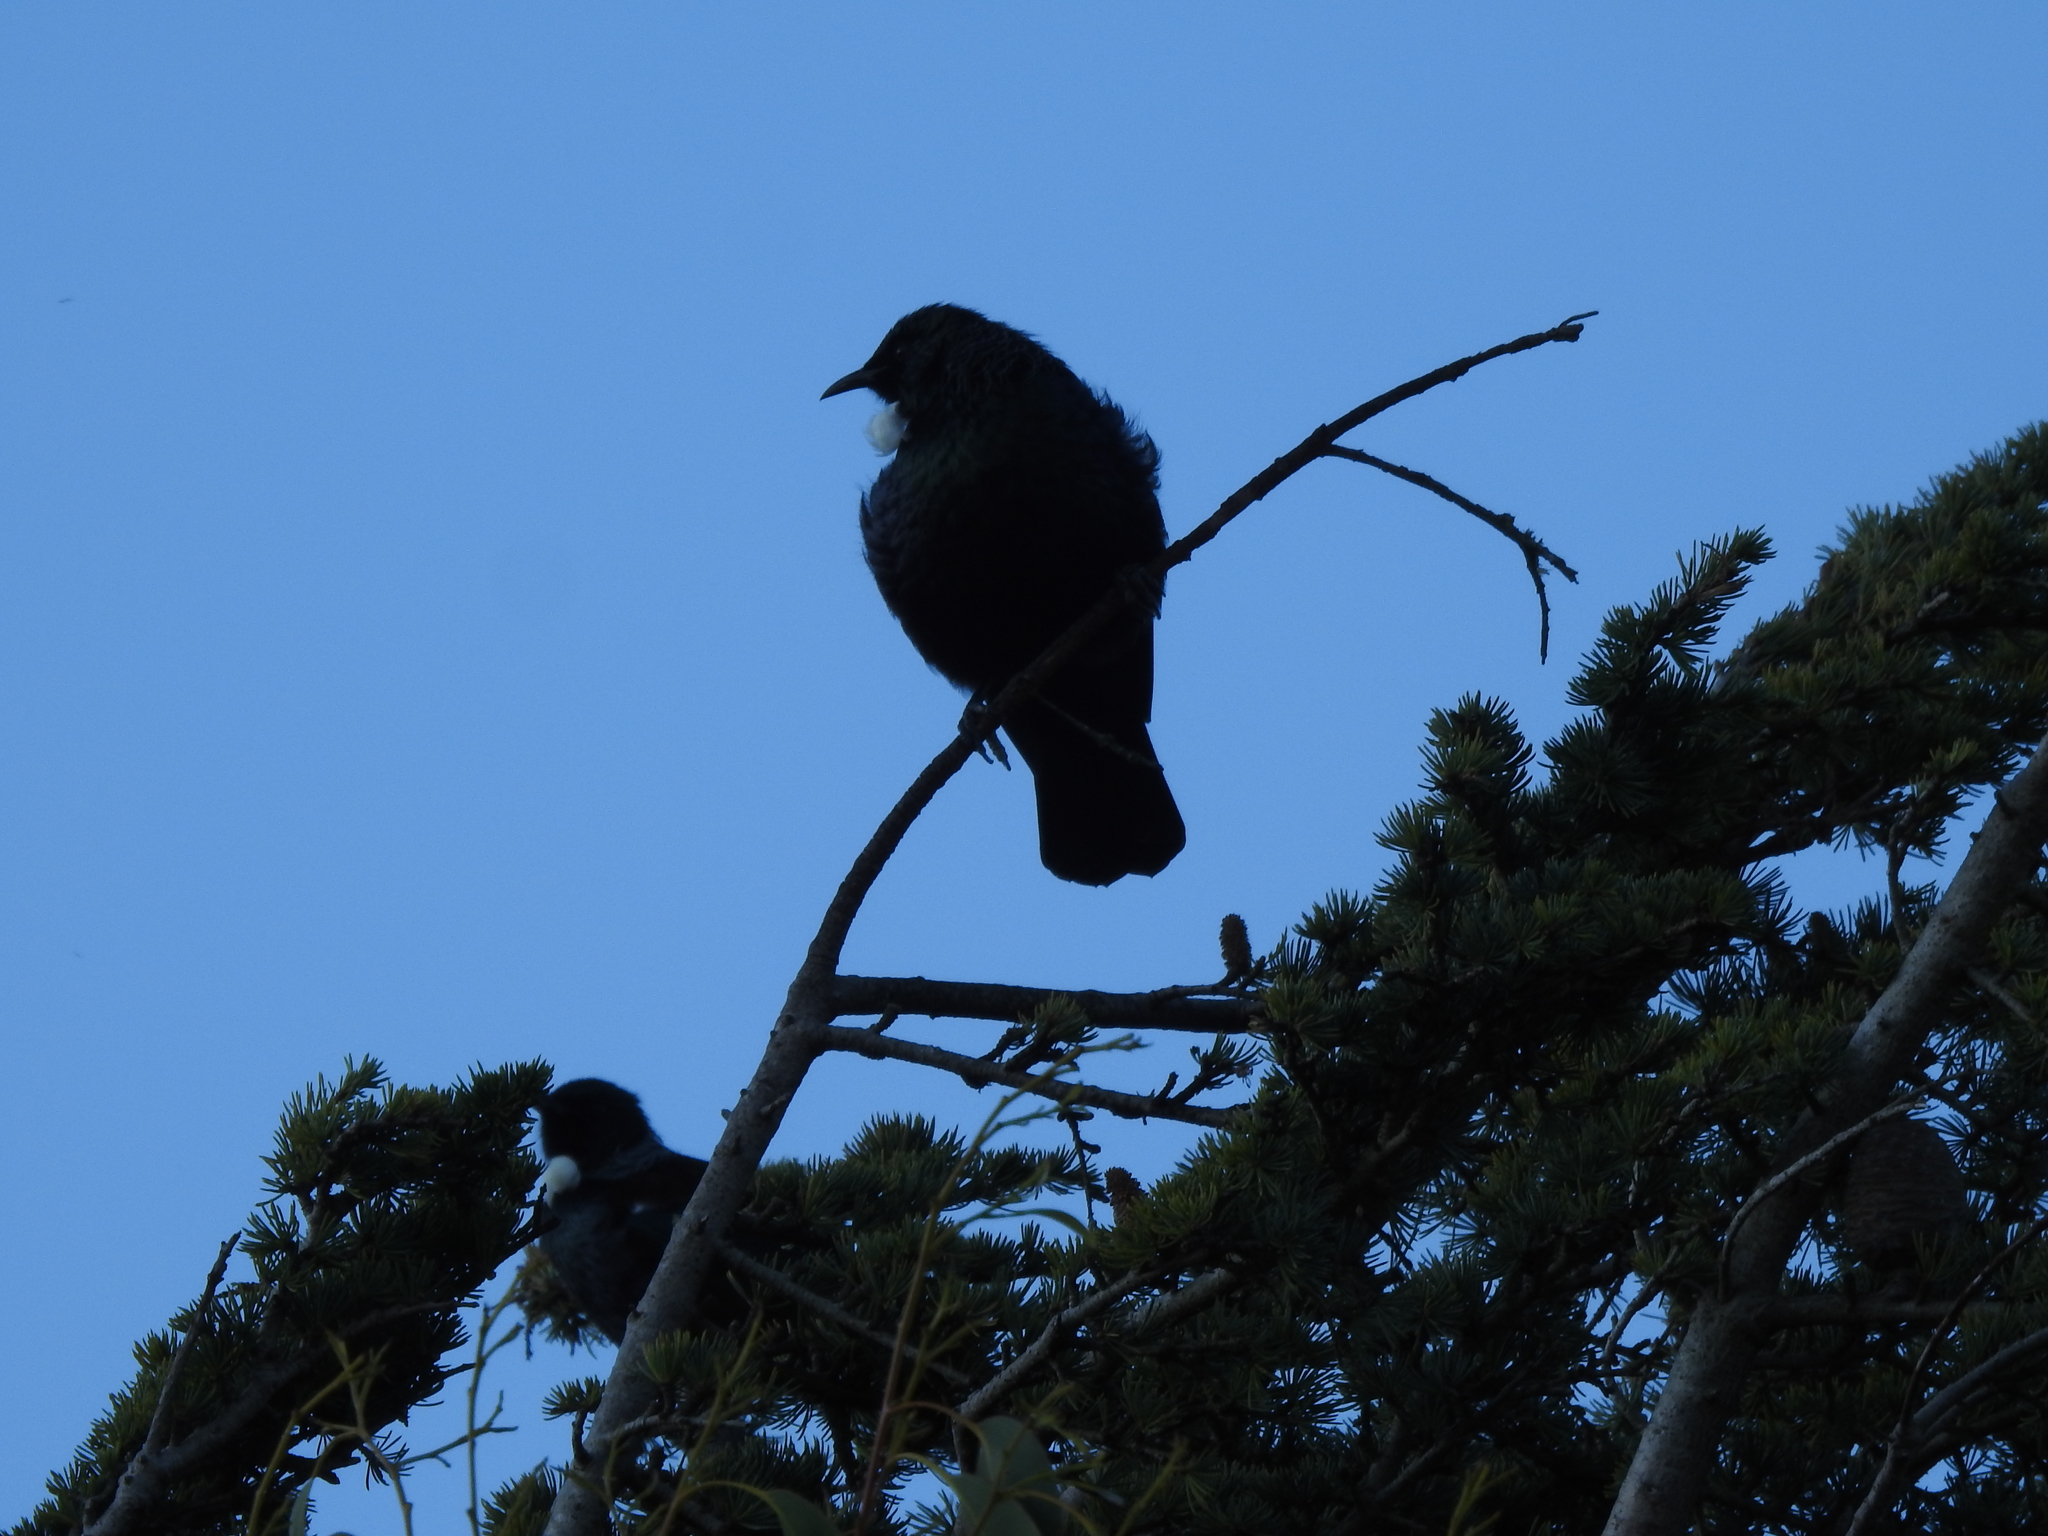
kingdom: Animalia
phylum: Chordata
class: Aves
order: Passeriformes
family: Meliphagidae
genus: Prosthemadera
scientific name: Prosthemadera novaeseelandiae
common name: Tui
